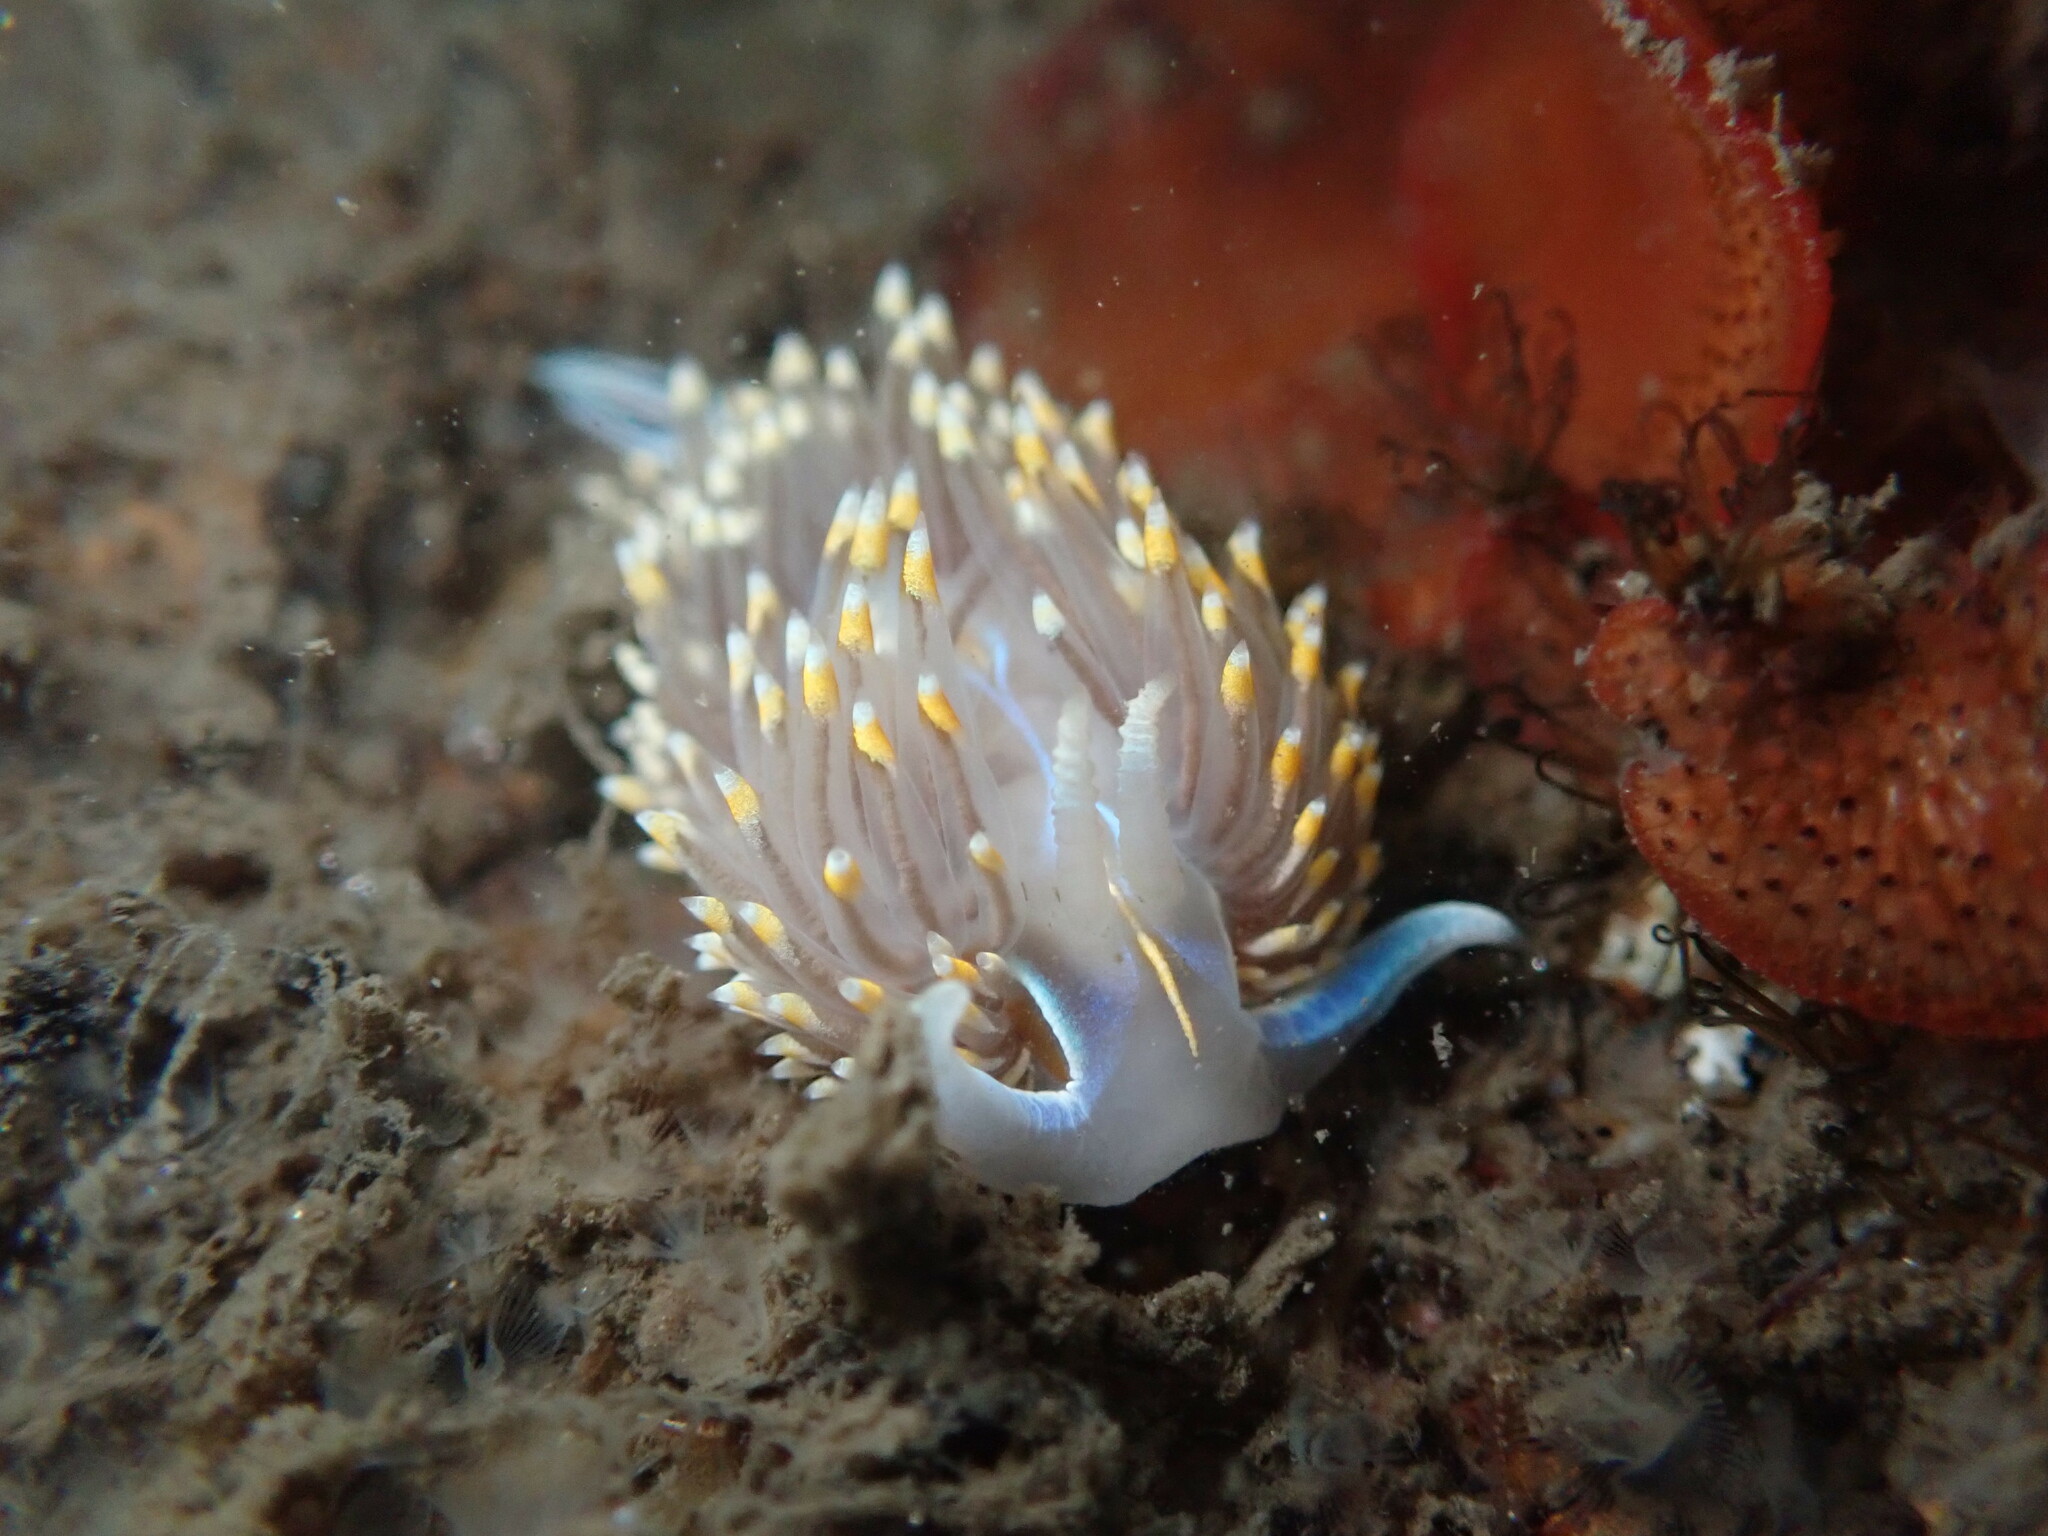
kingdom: Animalia
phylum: Mollusca
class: Gastropoda
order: Nudibranchia
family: Myrrhinidae
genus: Hermissenda
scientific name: Hermissenda opalescens
